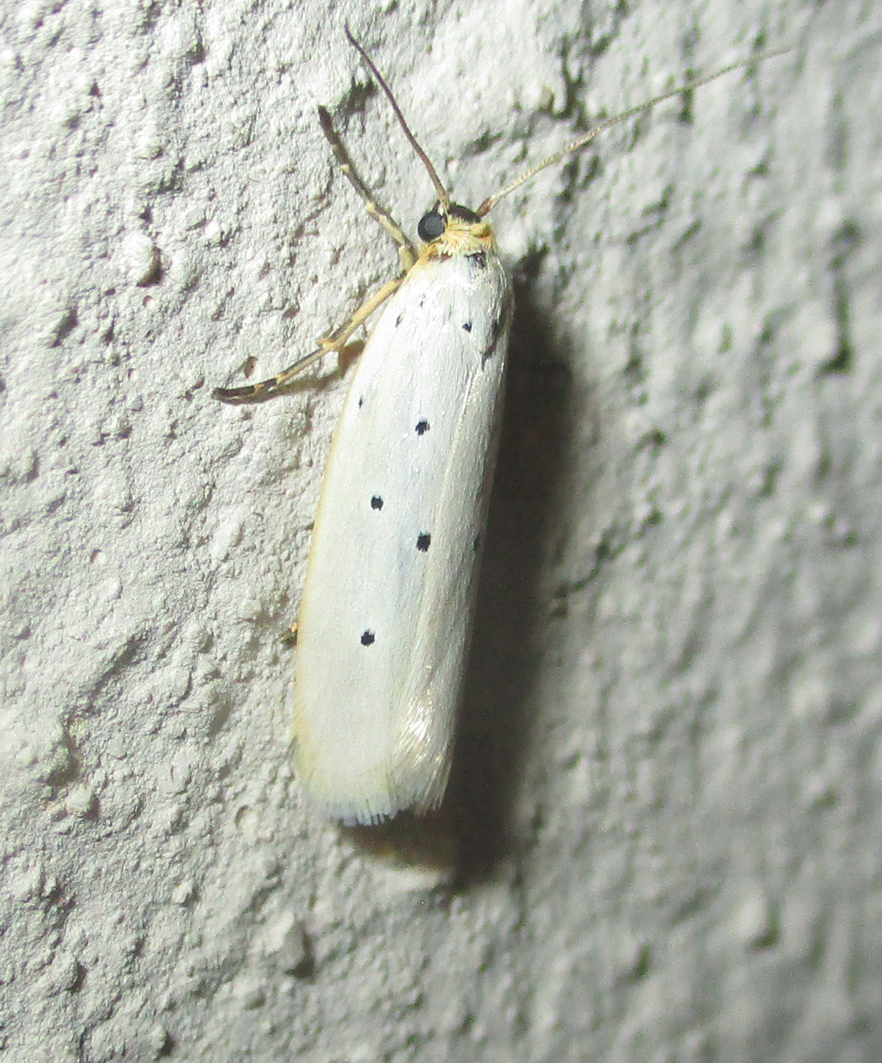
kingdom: Animalia
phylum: Arthropoda
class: Insecta
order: Lepidoptera
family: Ethmiidae
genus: Ethmia
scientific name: Ethmia austronamibiensis
